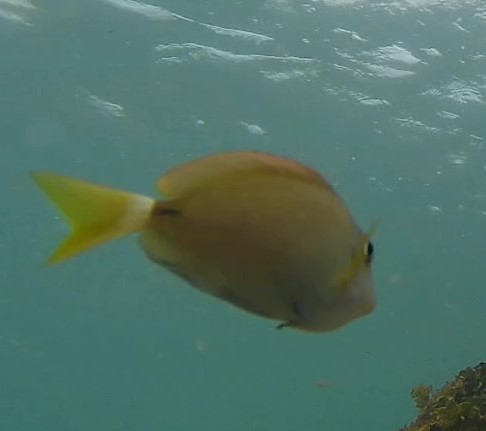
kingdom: Animalia
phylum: Chordata
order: Perciformes
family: Acanthuridae
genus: Acanthurus
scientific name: Acanthurus bahianus
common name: Ocean surgeon
